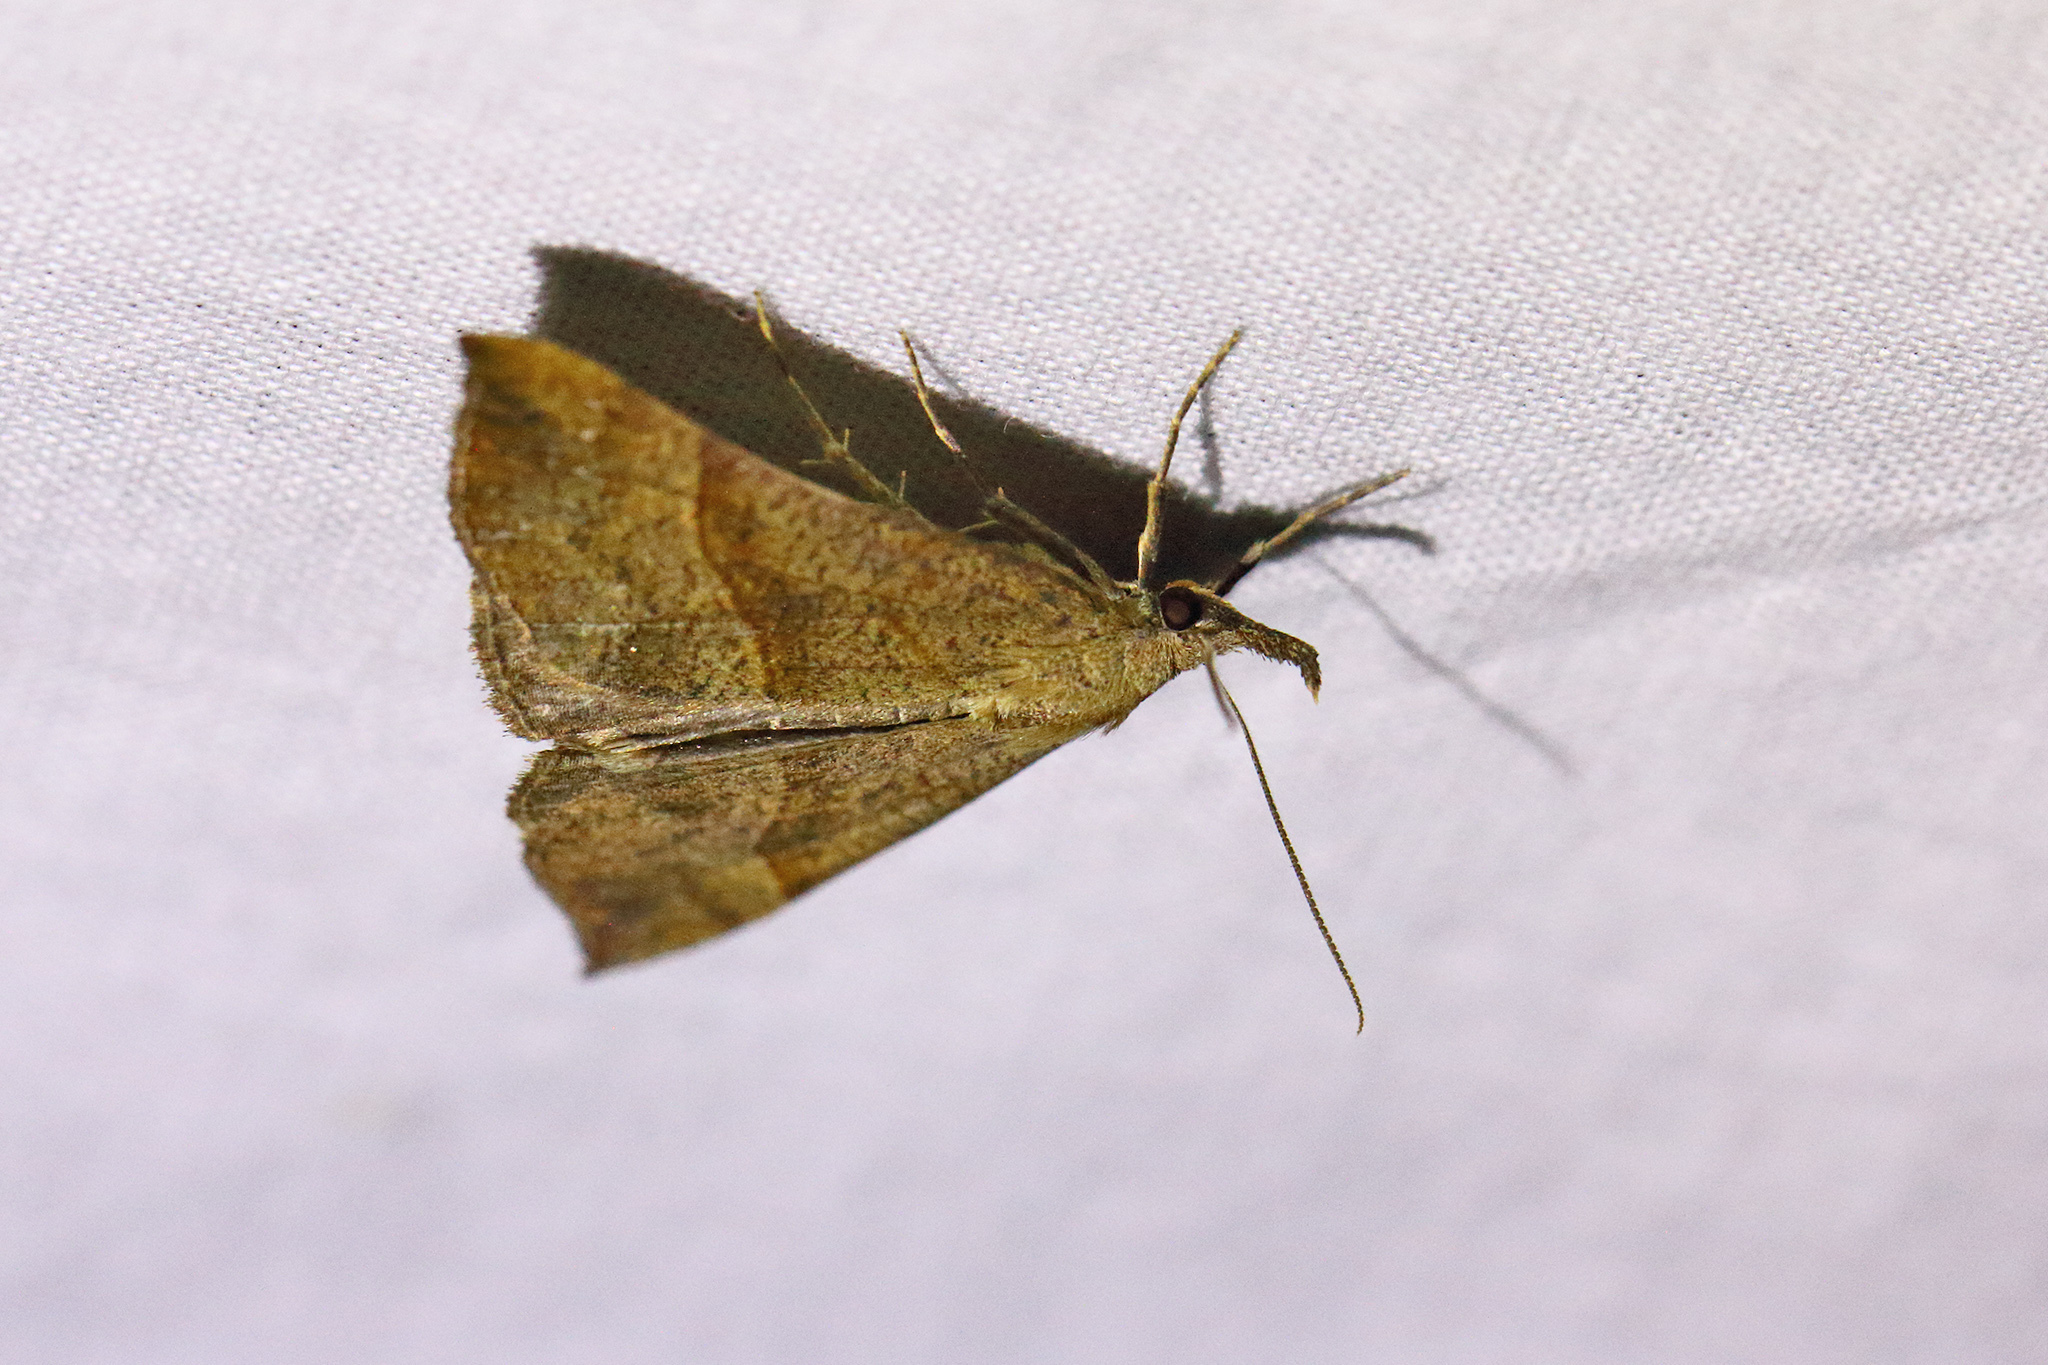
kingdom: Animalia
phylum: Arthropoda
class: Insecta
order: Lepidoptera
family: Erebidae
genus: Hypena
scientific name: Hypena proboscidalis
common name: Snout
